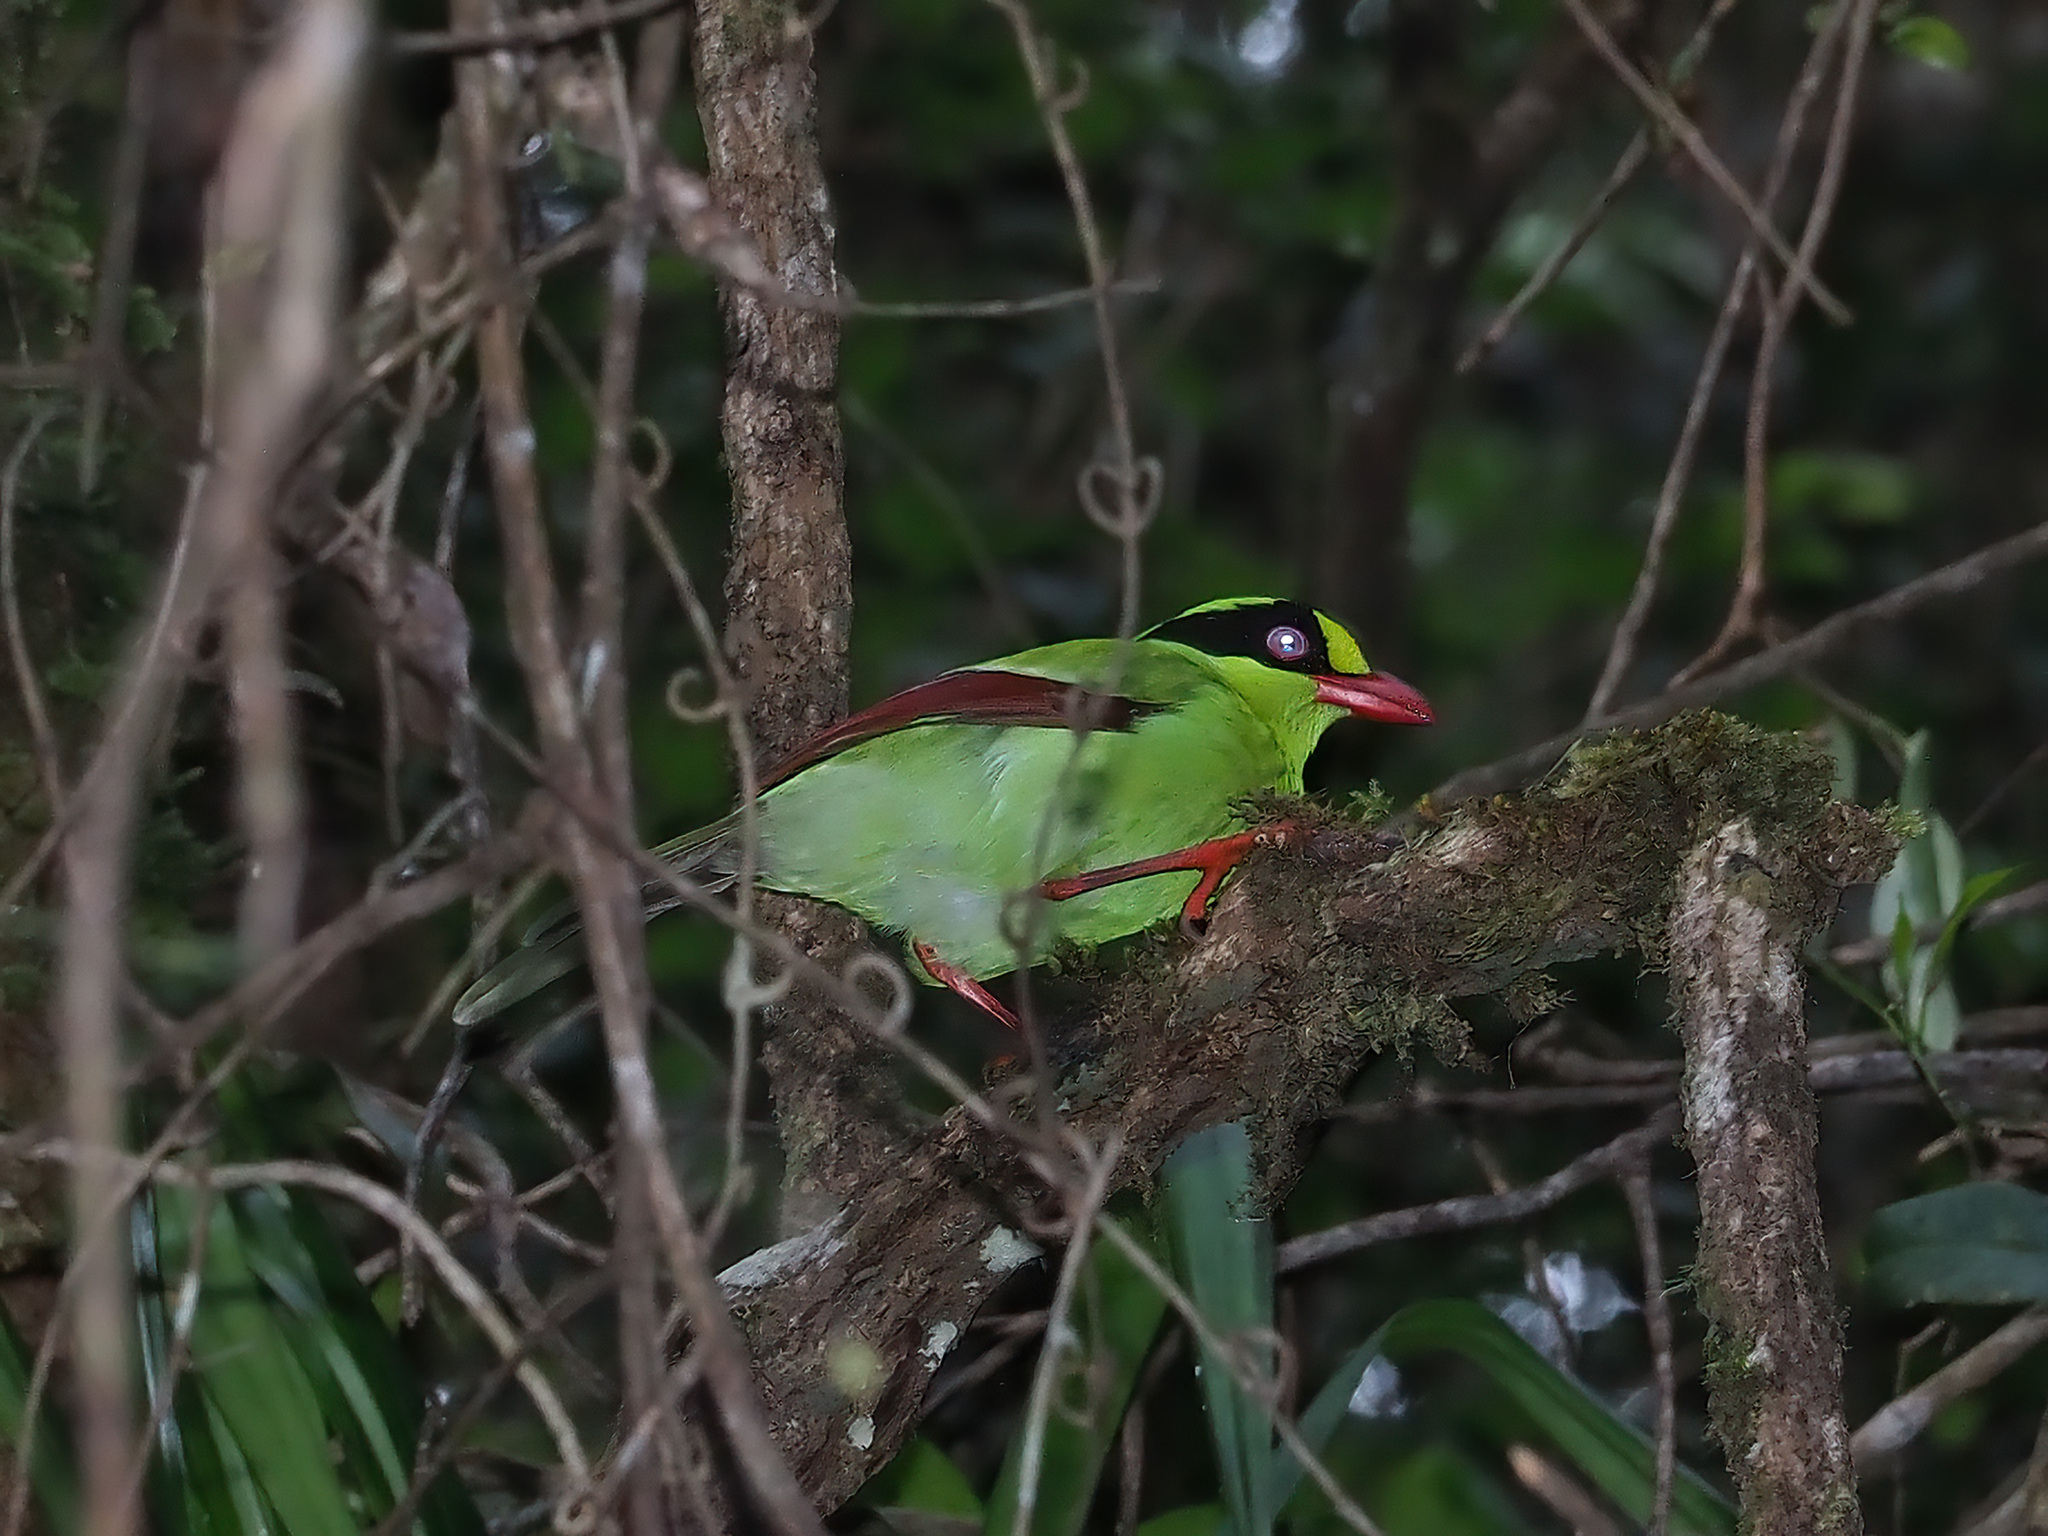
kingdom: Animalia
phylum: Chordata
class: Aves
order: Passeriformes
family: Corvidae
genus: Cissa
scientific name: Cissa jefferyi
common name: Bornean green magpie
